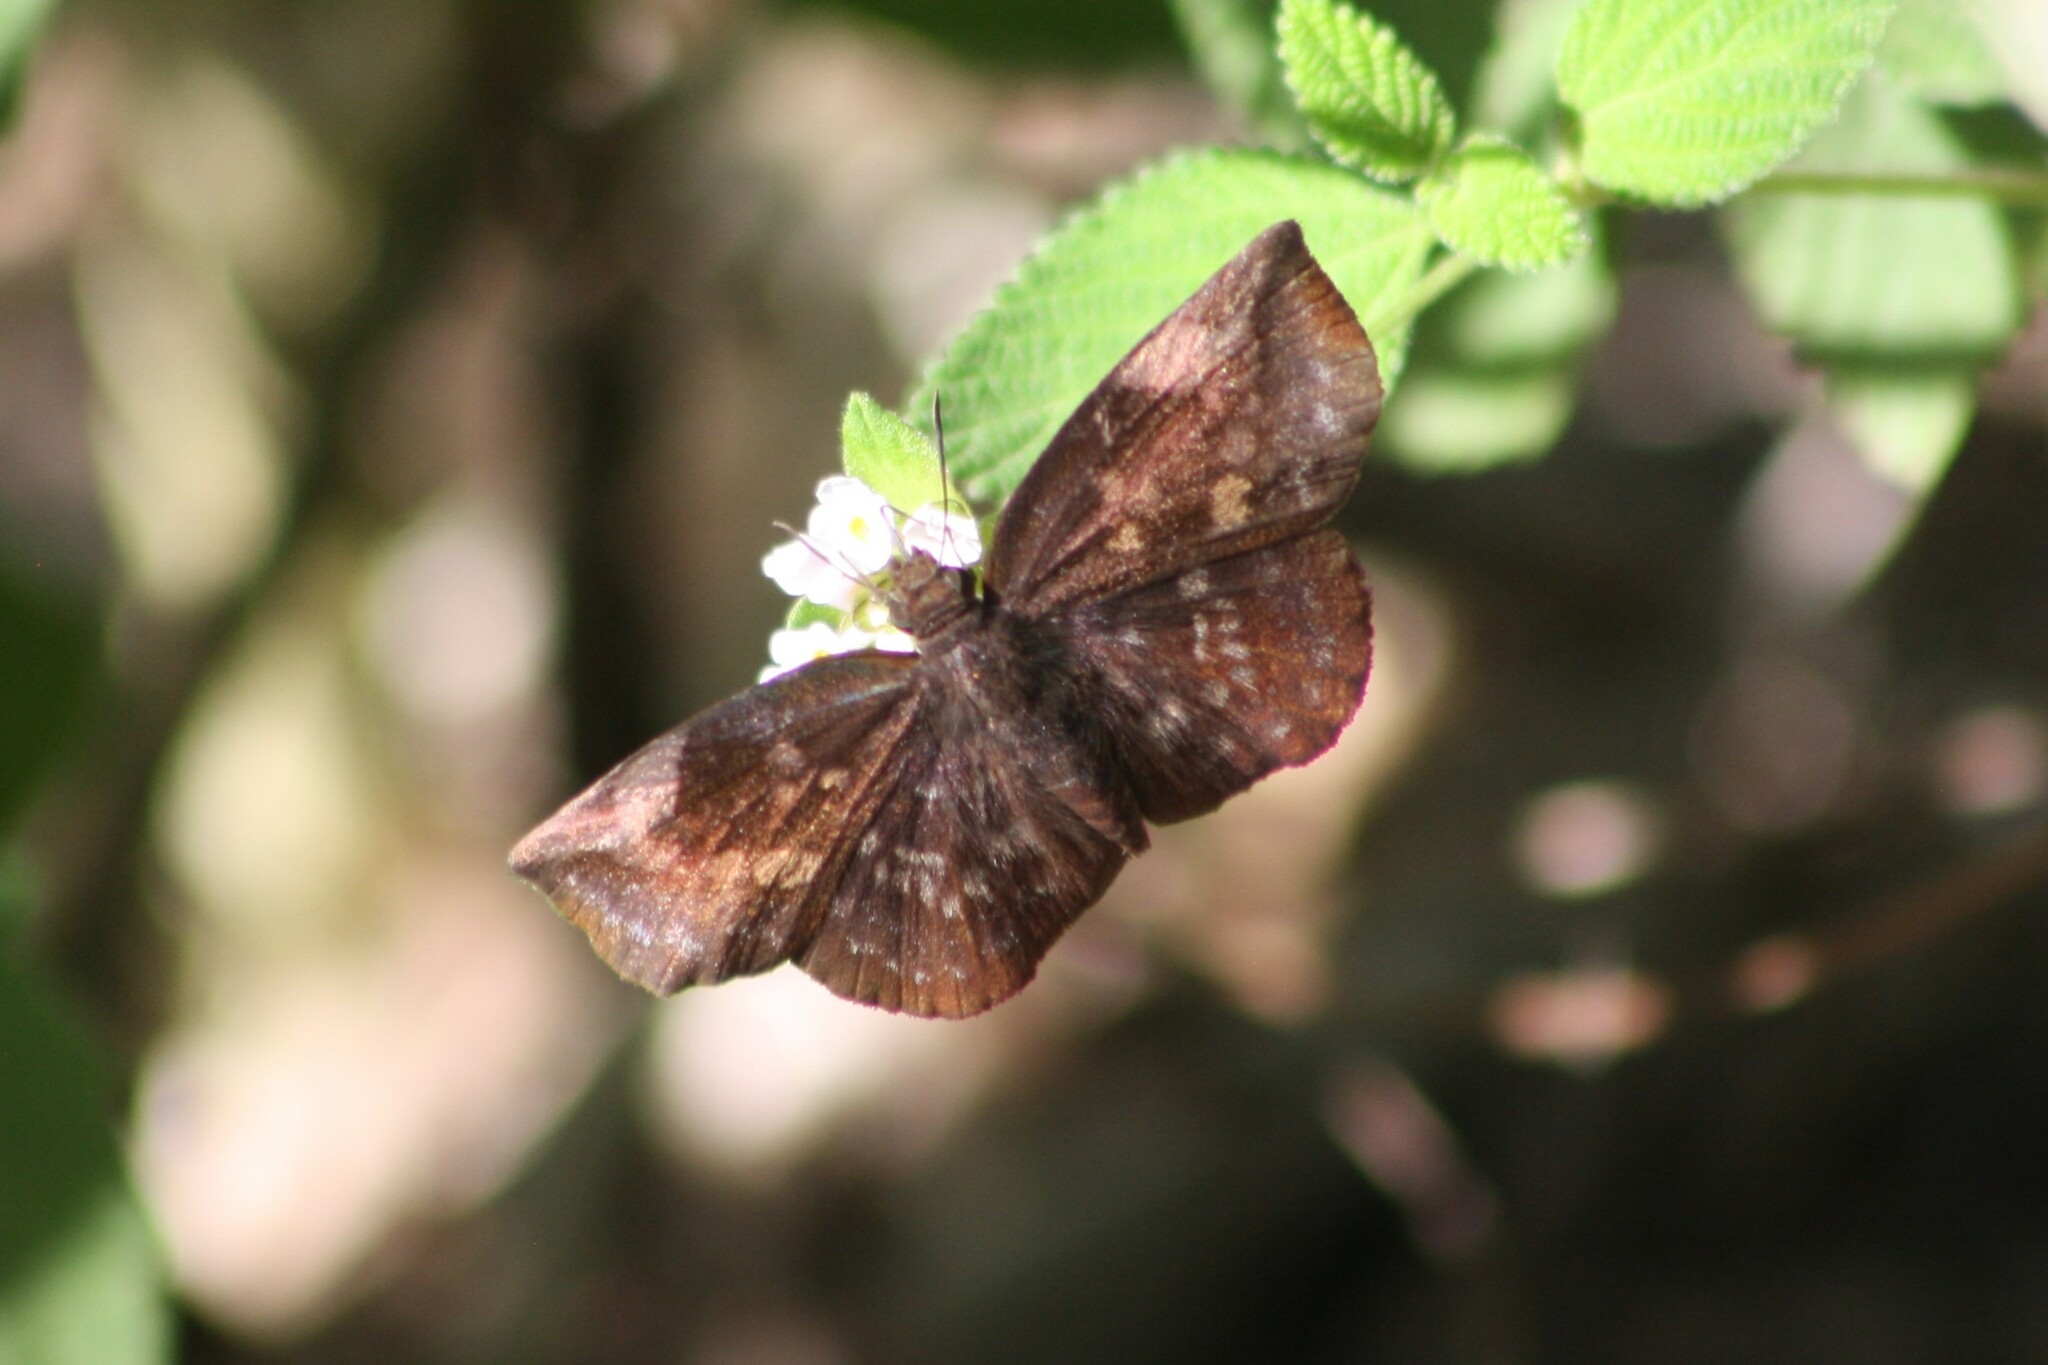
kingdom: Animalia
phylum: Arthropoda
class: Insecta
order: Lepidoptera
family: Hesperiidae
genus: Achlyodes
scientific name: Achlyodes thraso
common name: Sickle-winged skipper
